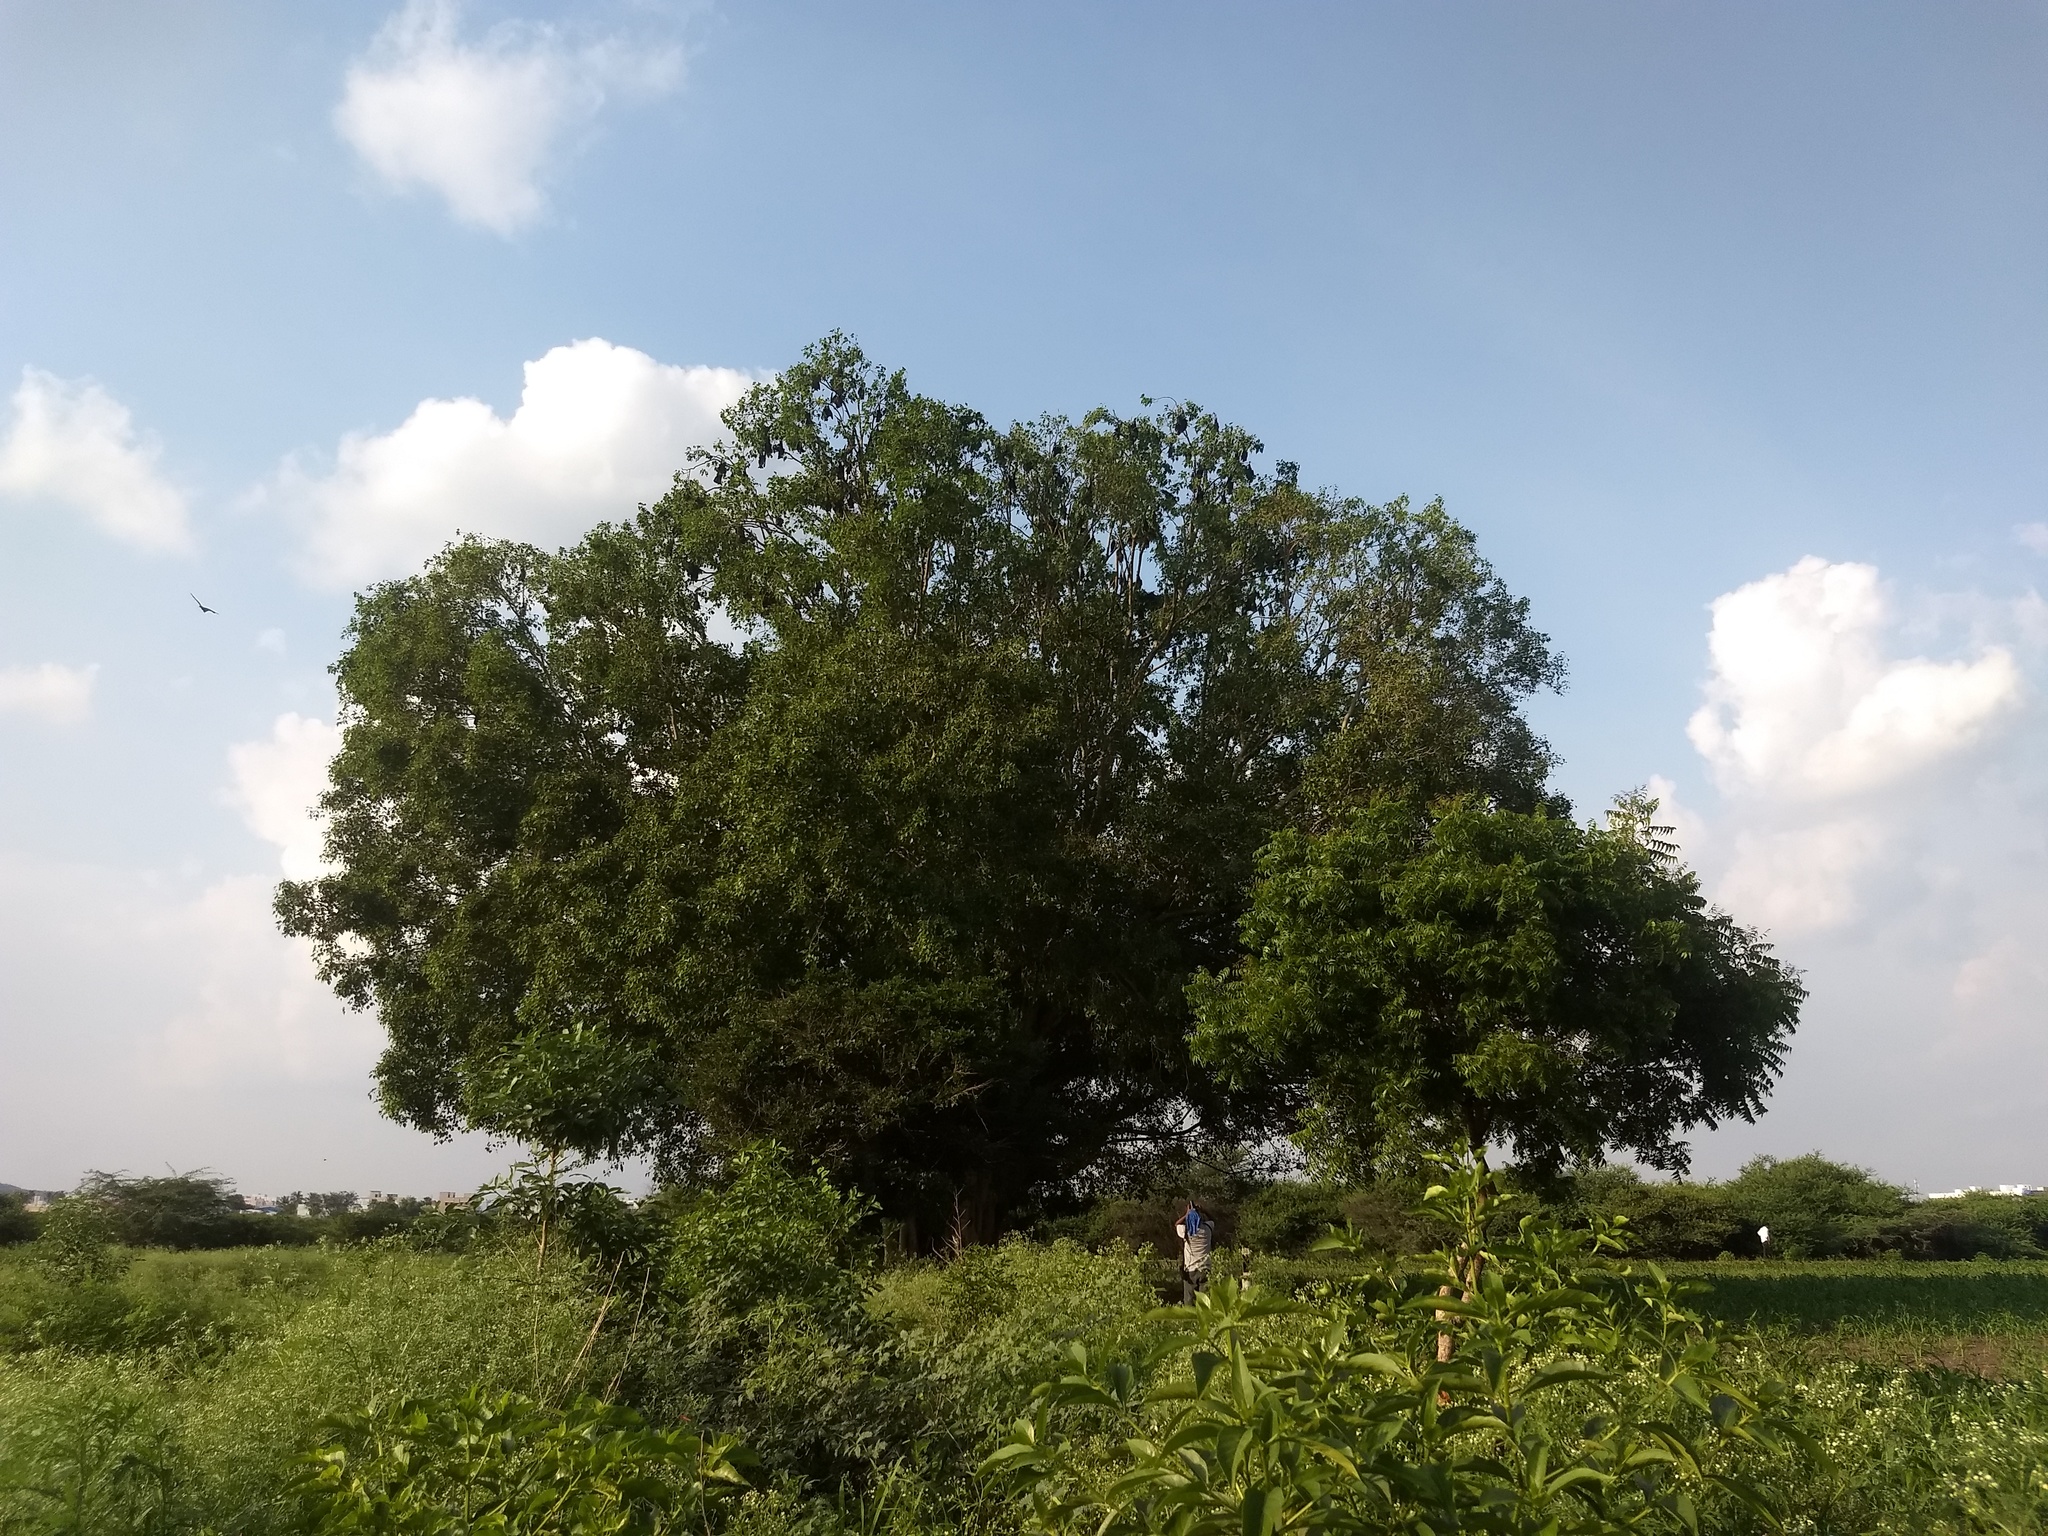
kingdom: Plantae
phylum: Tracheophyta
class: Magnoliopsida
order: Rosales
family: Moraceae
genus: Ficus
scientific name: Ficus religiosa
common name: Bodhi tree
